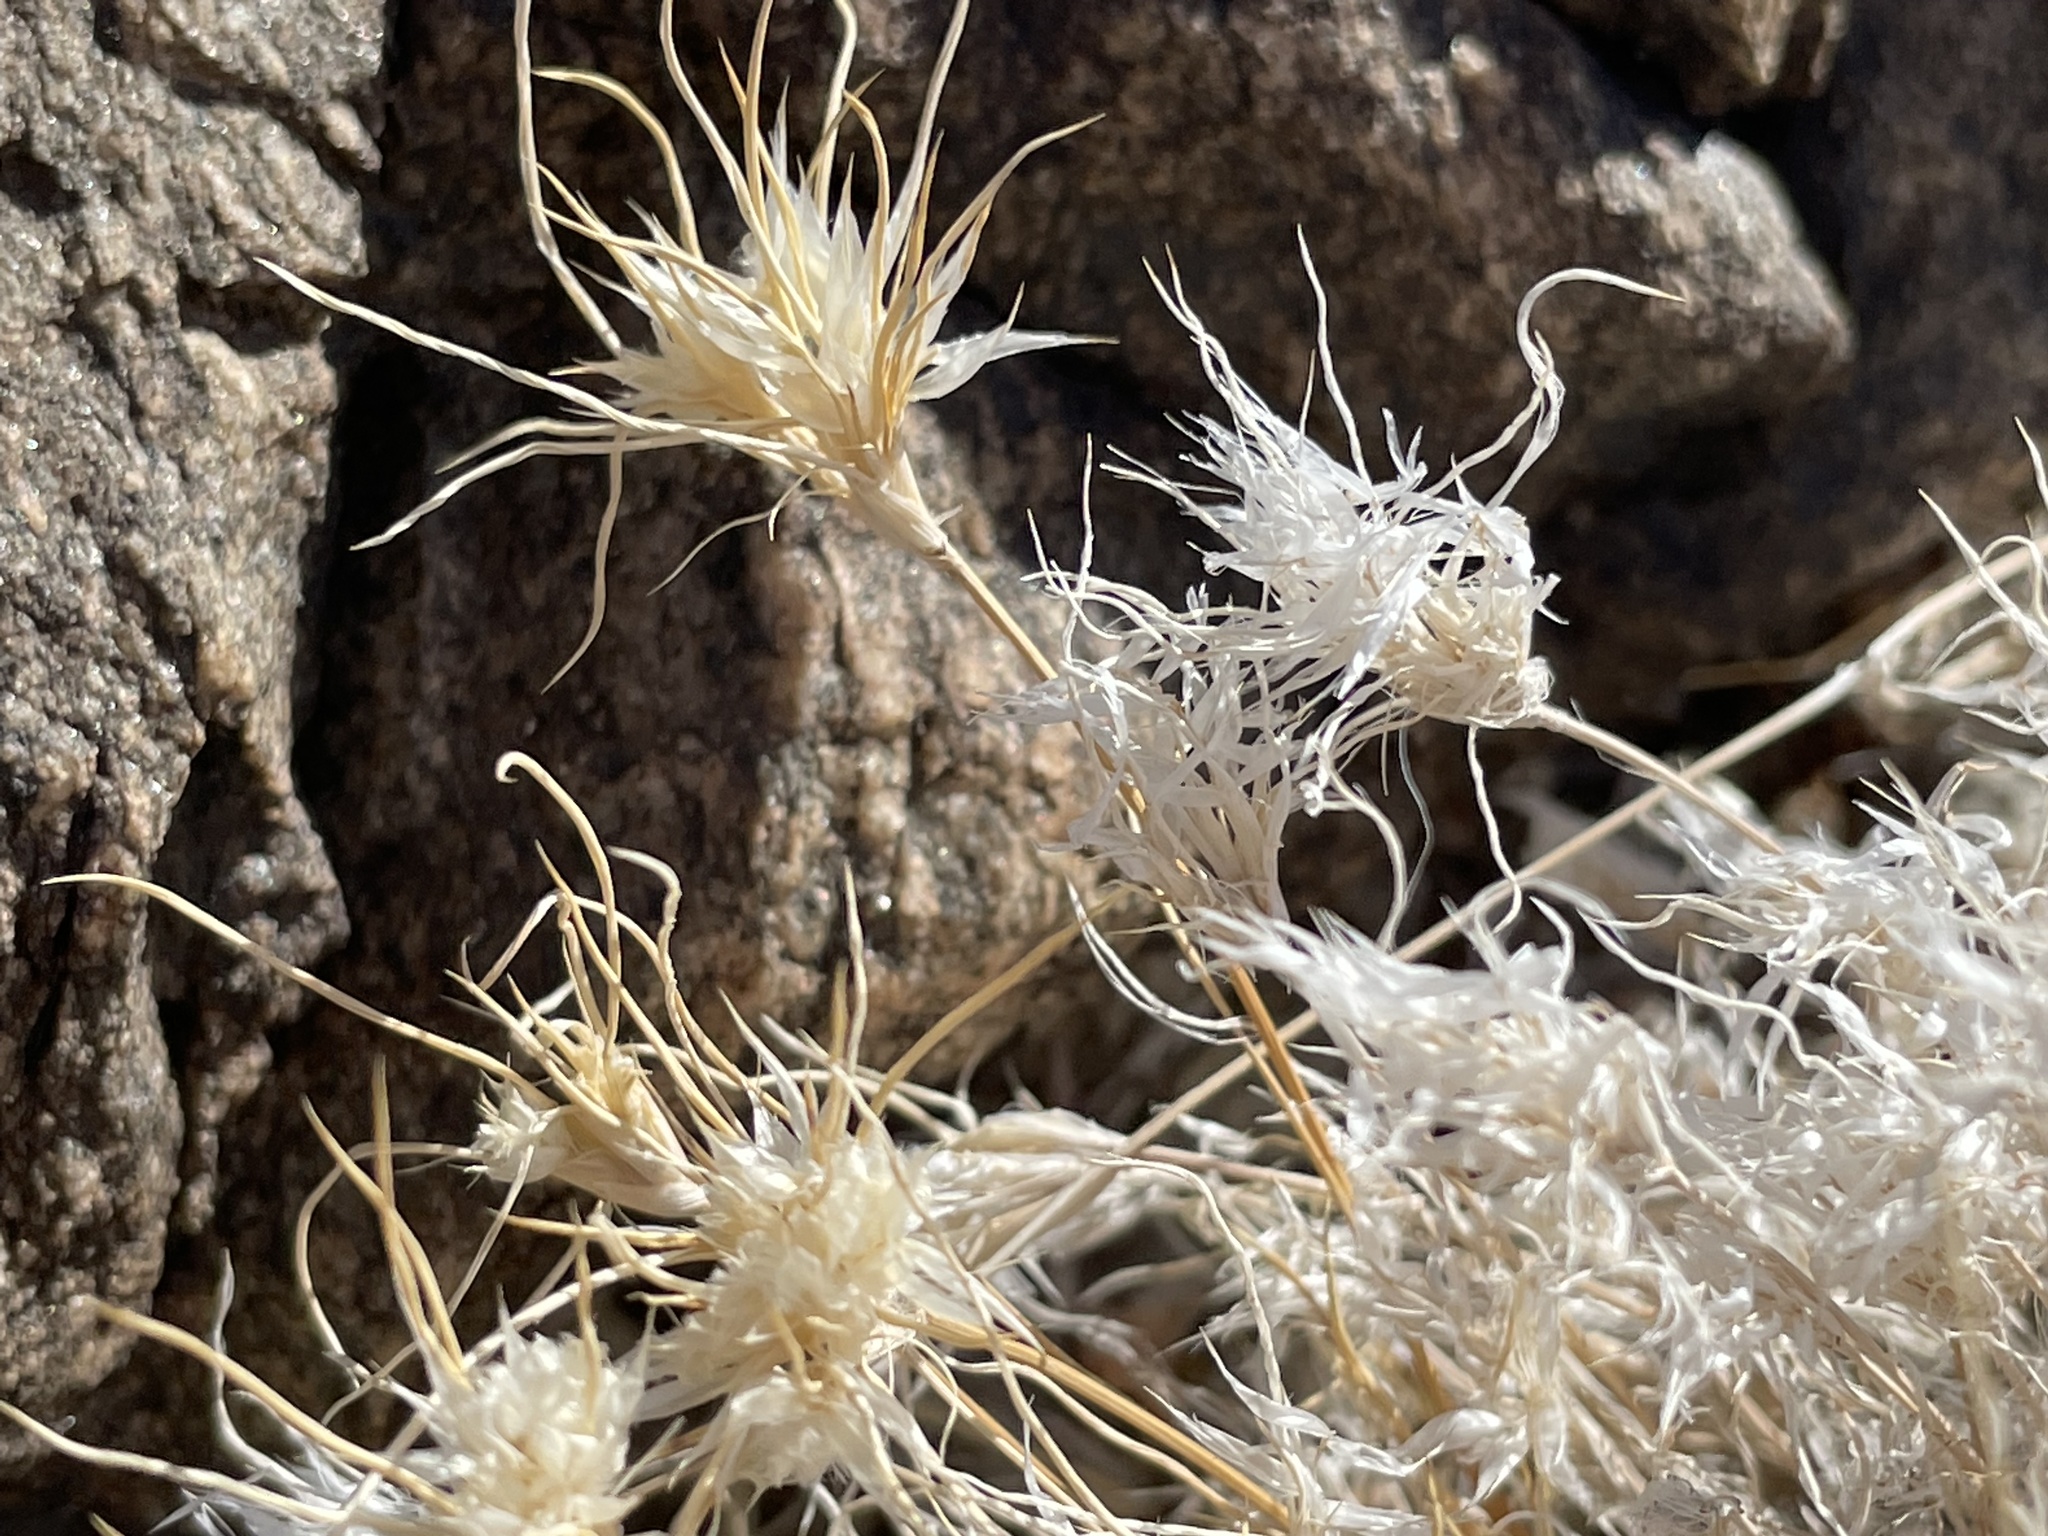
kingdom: Plantae
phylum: Tracheophyta
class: Liliopsida
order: Poales
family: Poaceae
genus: Dasyochloa
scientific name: Dasyochloa pulchella
